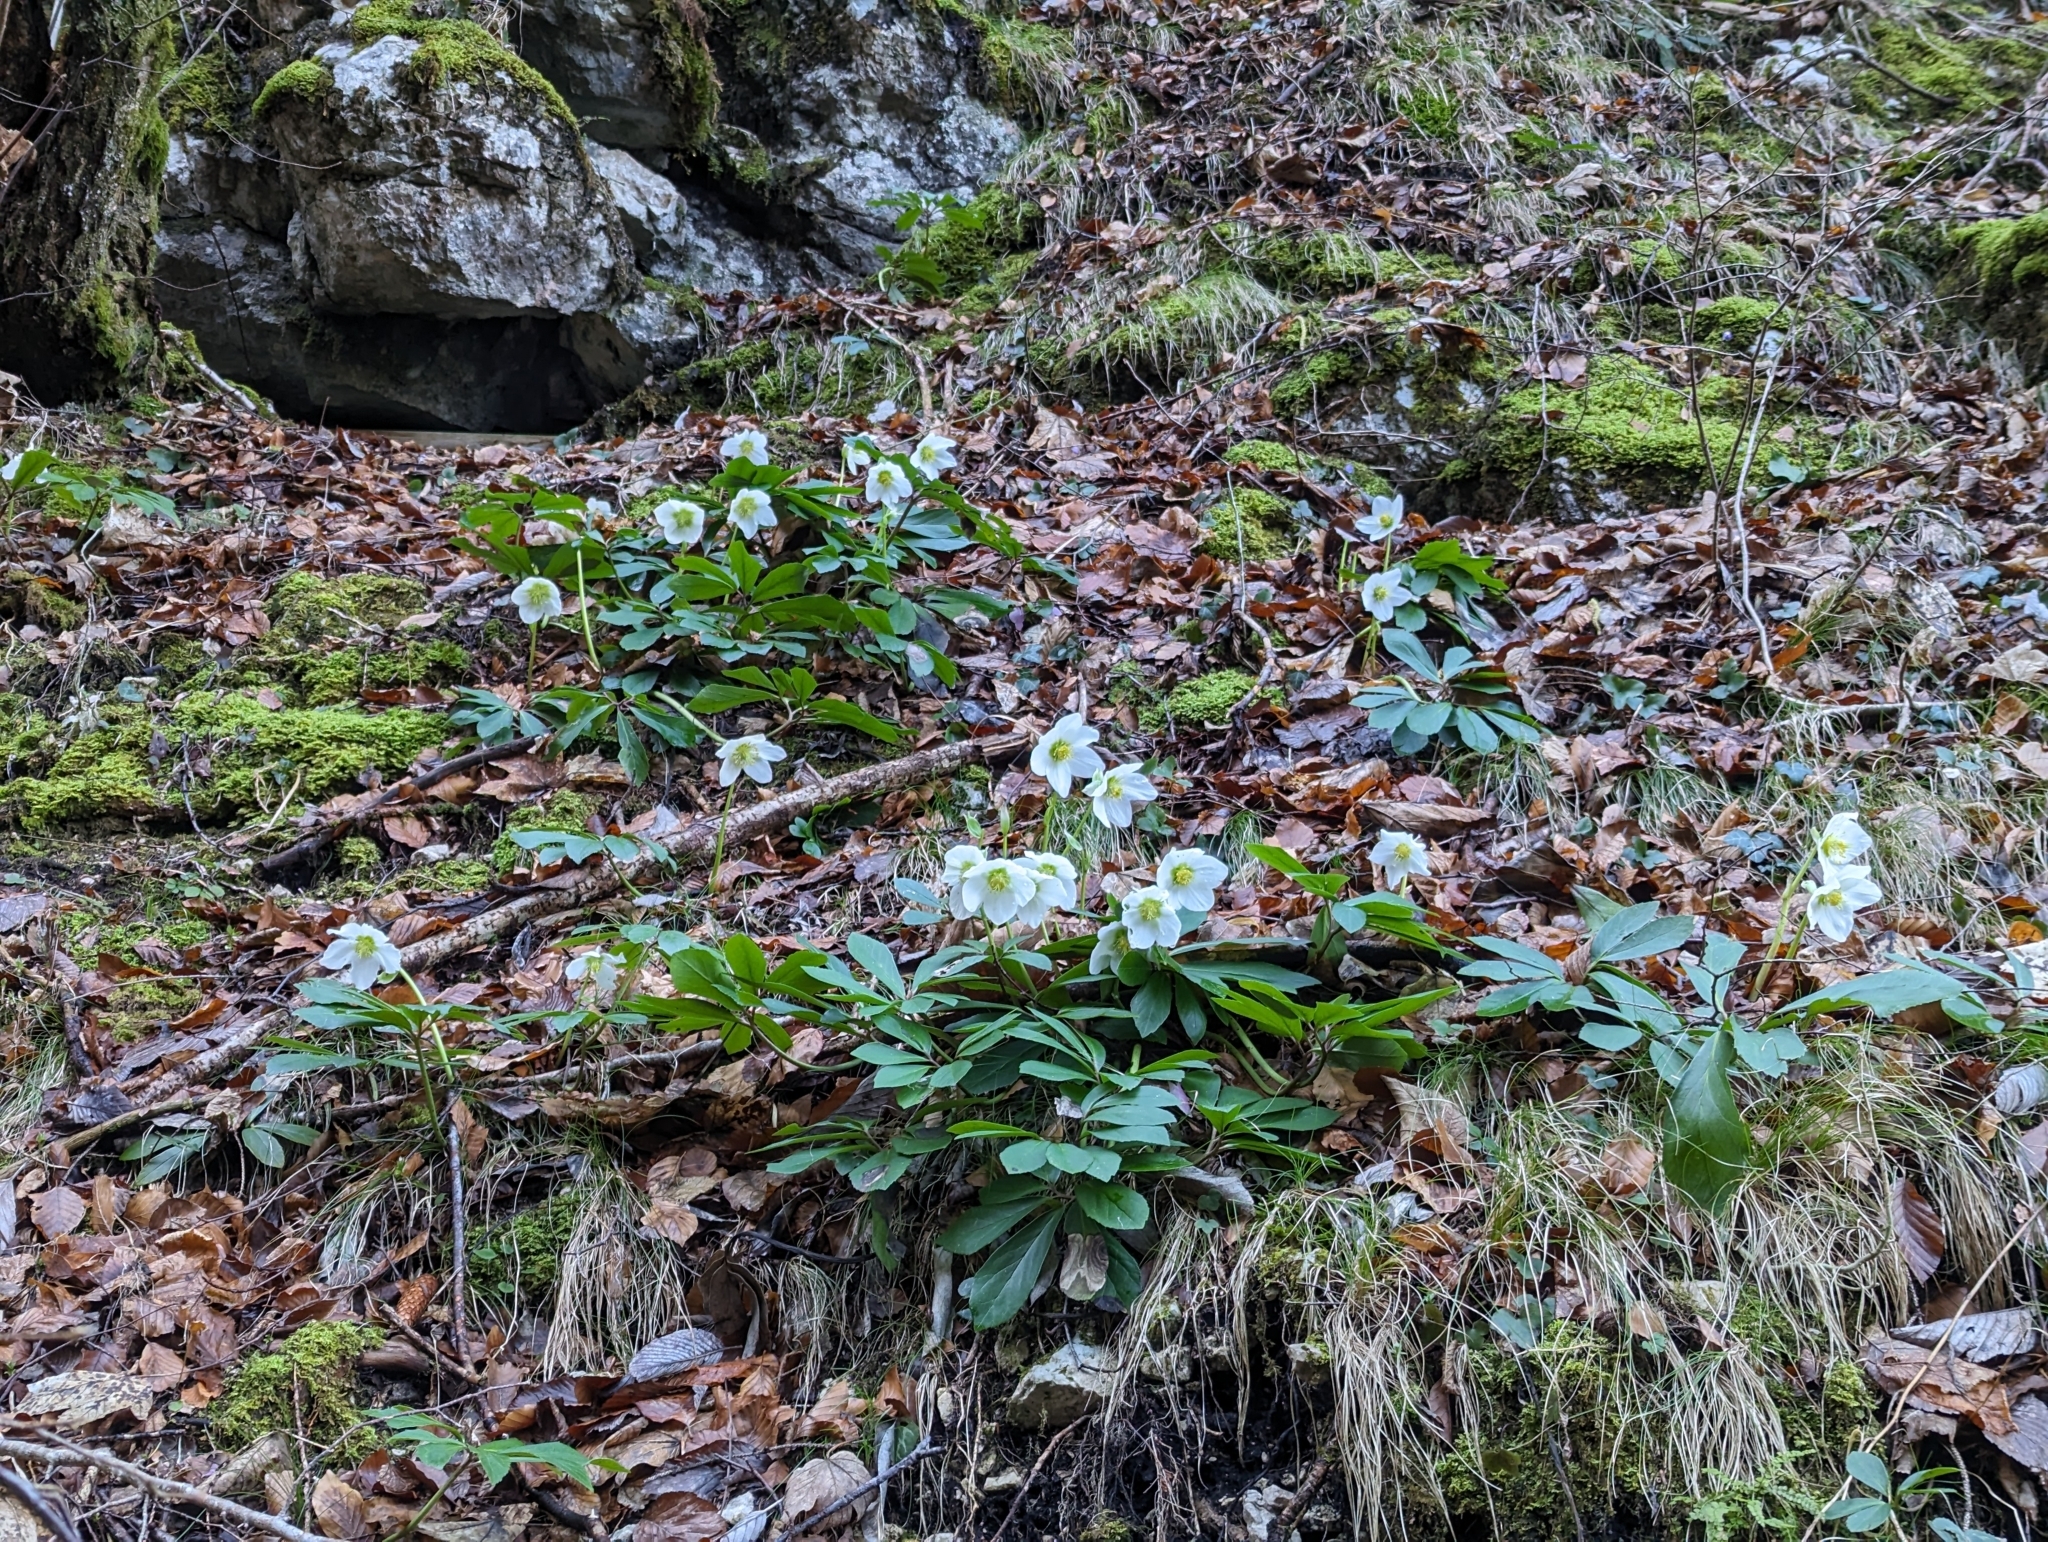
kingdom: Plantae
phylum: Tracheophyta
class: Magnoliopsida
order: Ranunculales
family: Ranunculaceae
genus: Helleborus
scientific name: Helleborus niger
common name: Black hellebore
